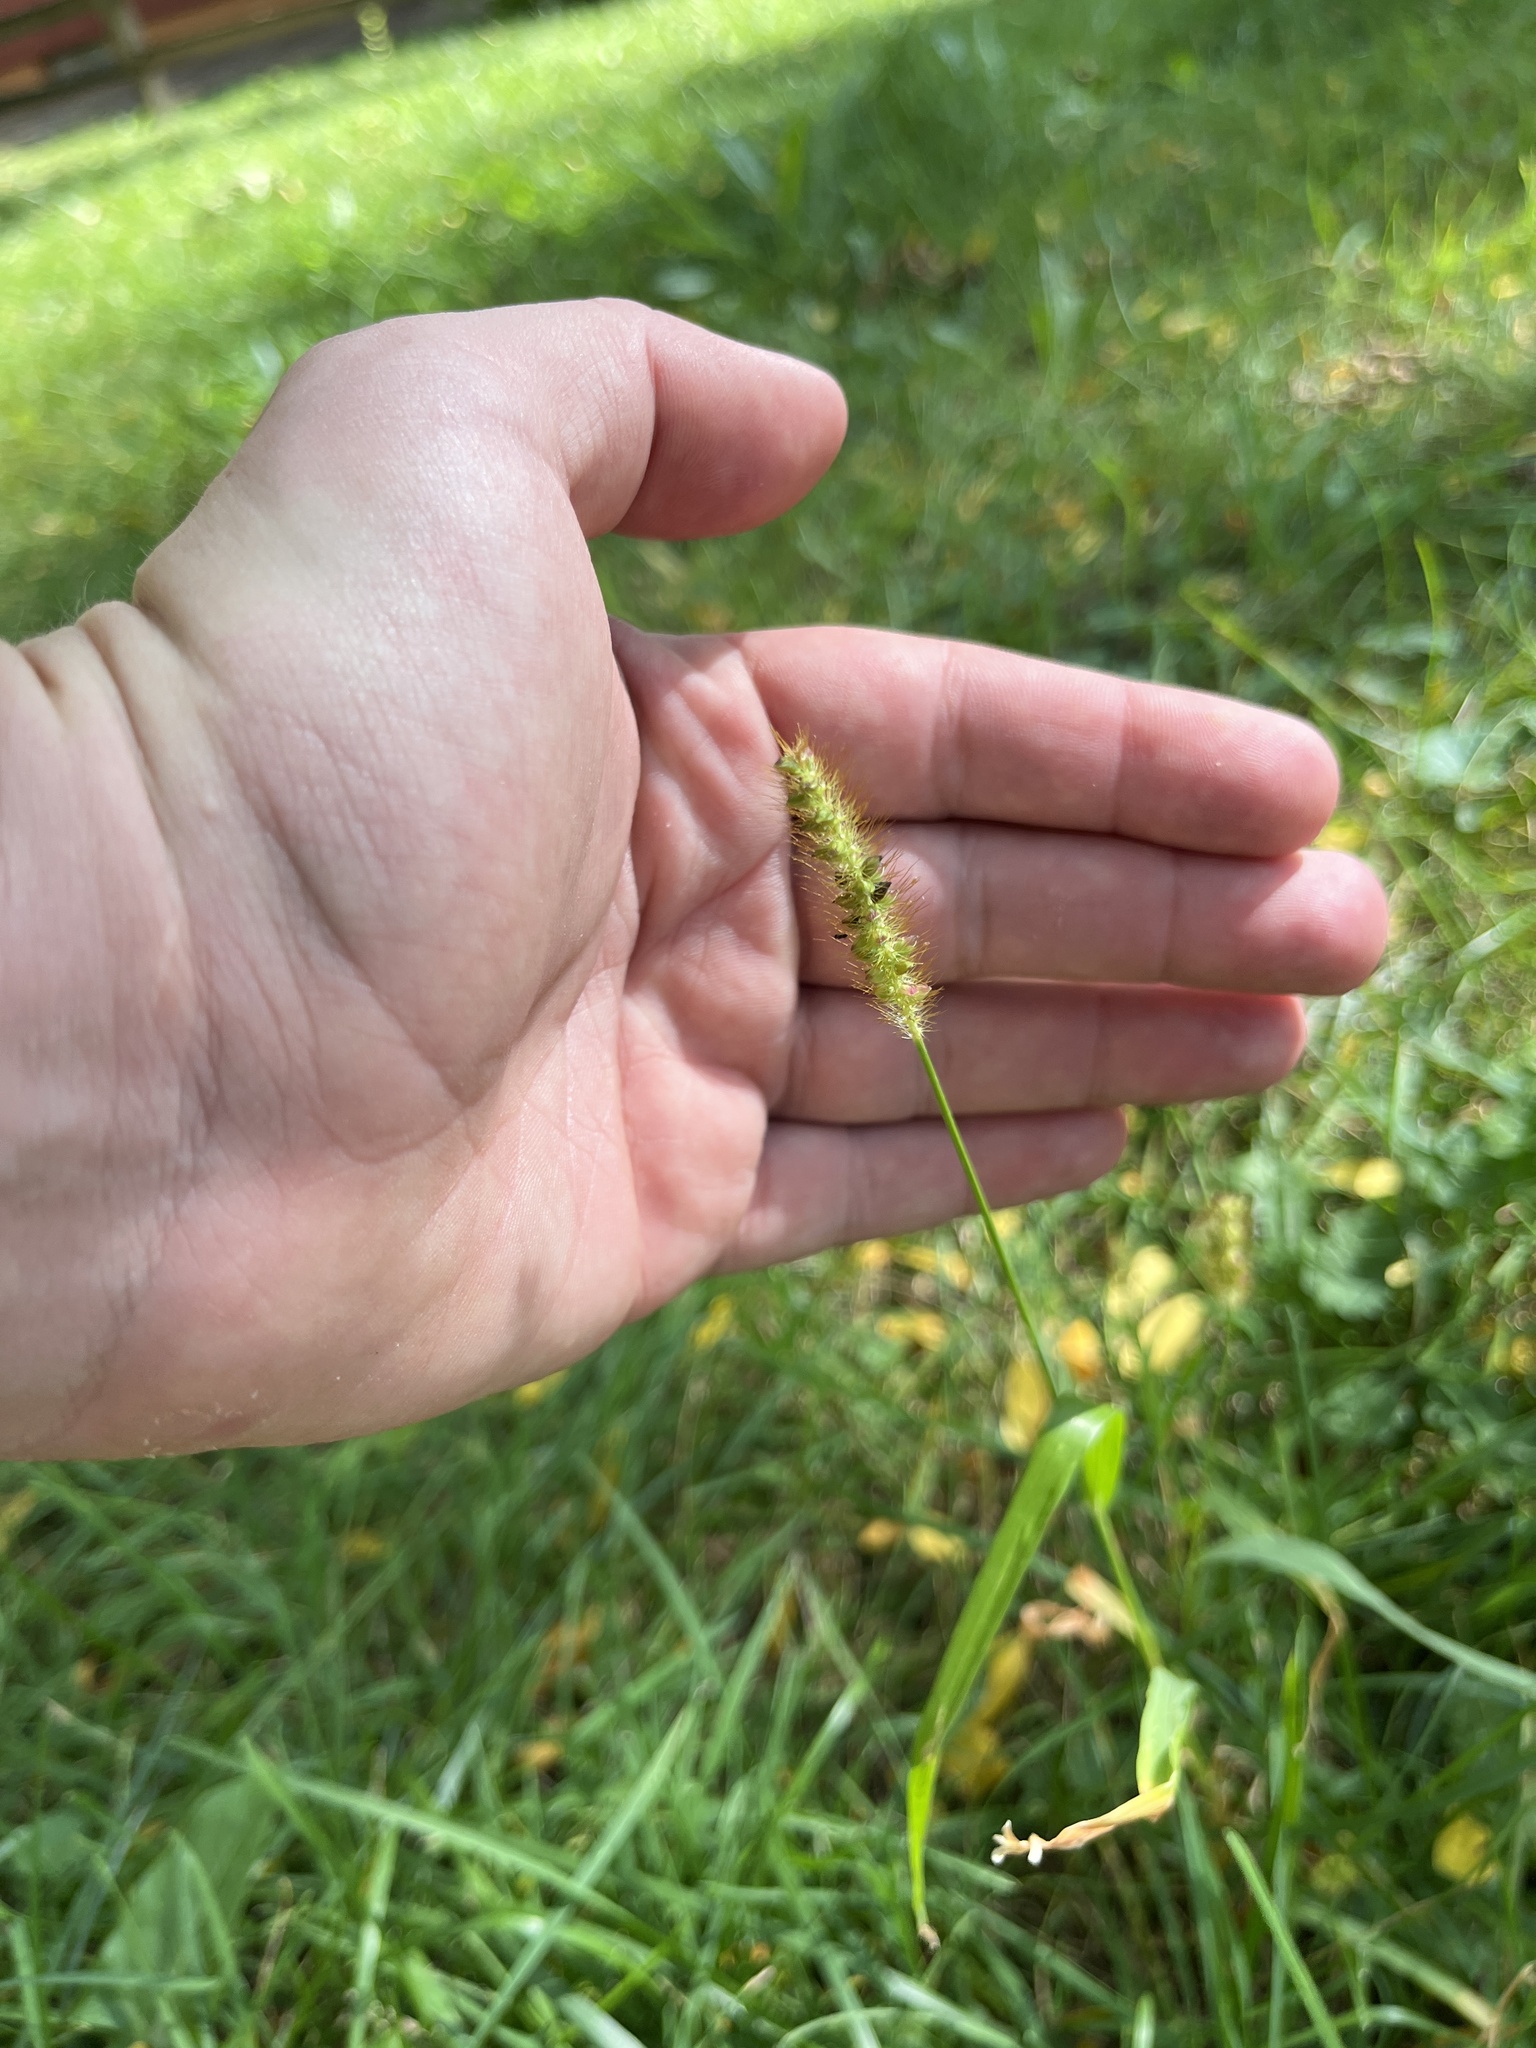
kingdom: Plantae
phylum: Tracheophyta
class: Liliopsida
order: Poales
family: Poaceae
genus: Setaria
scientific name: Setaria pumila
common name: Yellow bristle-grass
